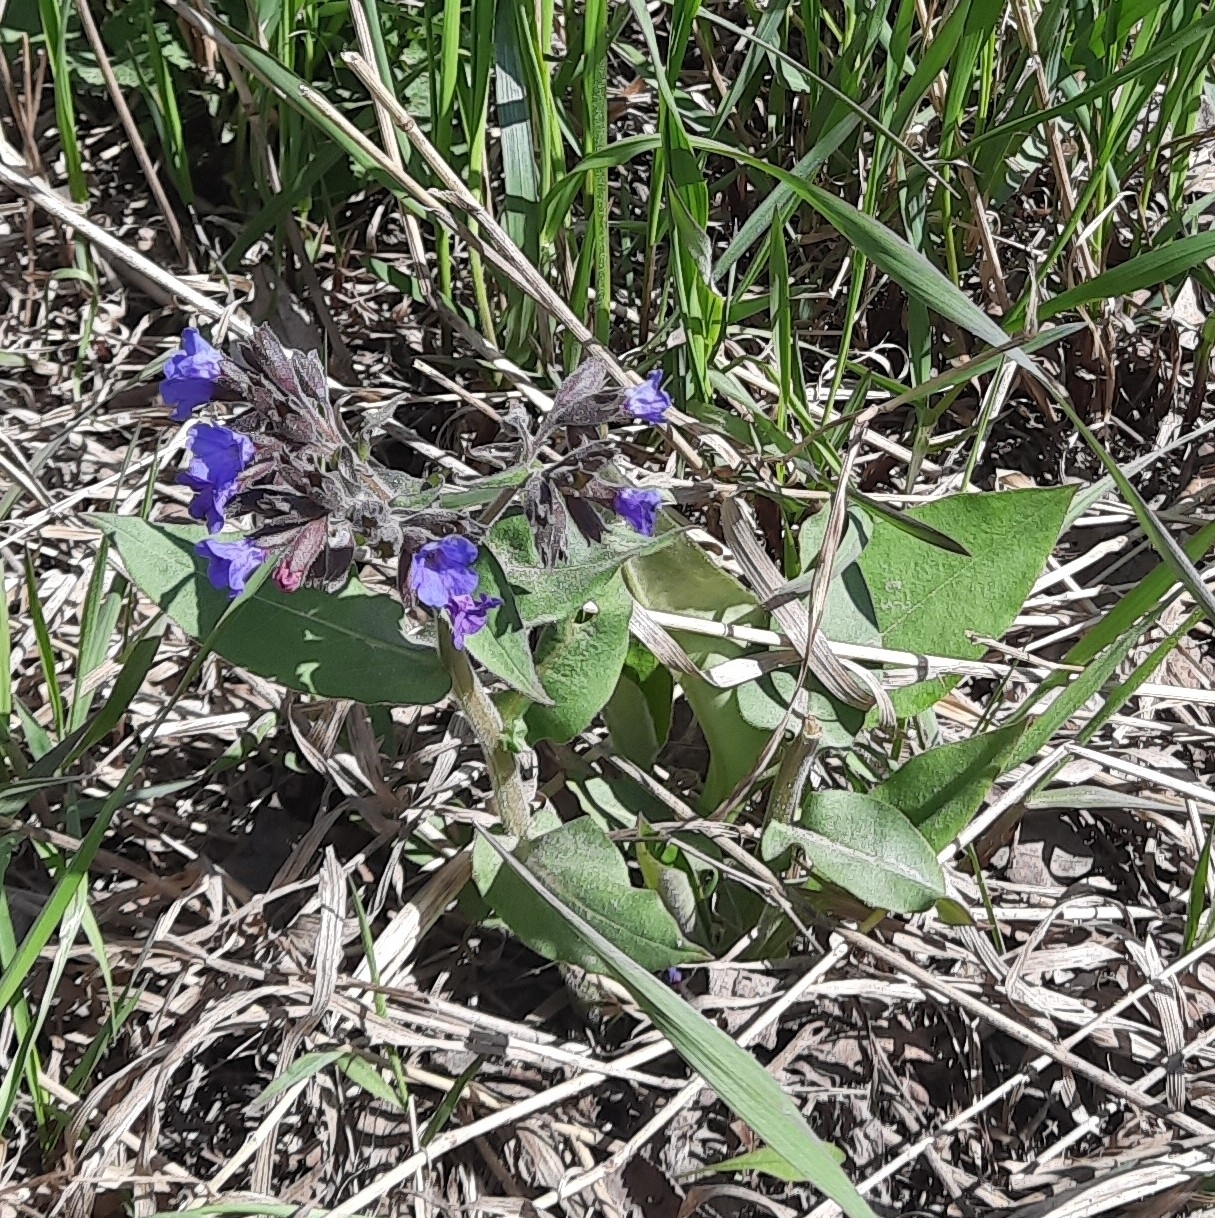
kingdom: Plantae
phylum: Tracheophyta
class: Magnoliopsida
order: Boraginales
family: Boraginaceae
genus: Pulmonaria
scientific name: Pulmonaria mollis
